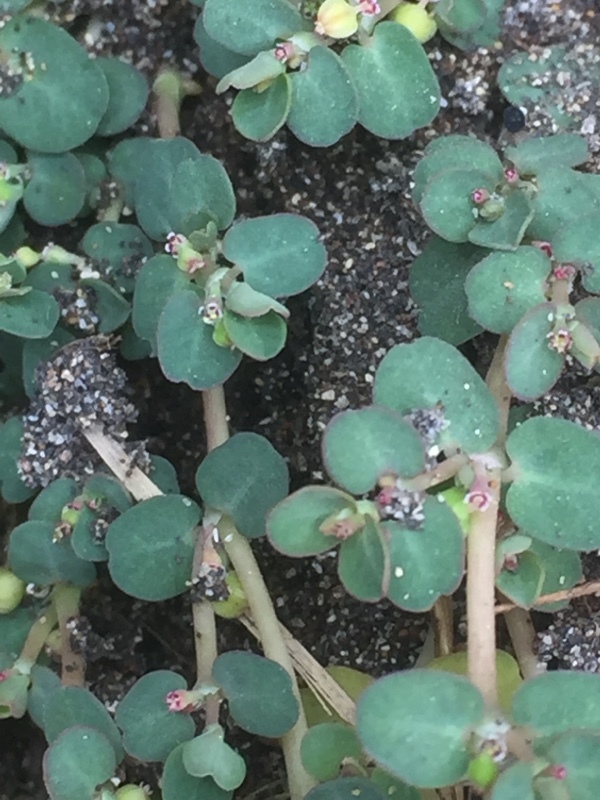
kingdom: Plantae
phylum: Tracheophyta
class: Magnoliopsida
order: Malpighiales
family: Euphorbiaceae
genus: Euphorbia
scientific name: Euphorbia serpens
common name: Matted sandmat
